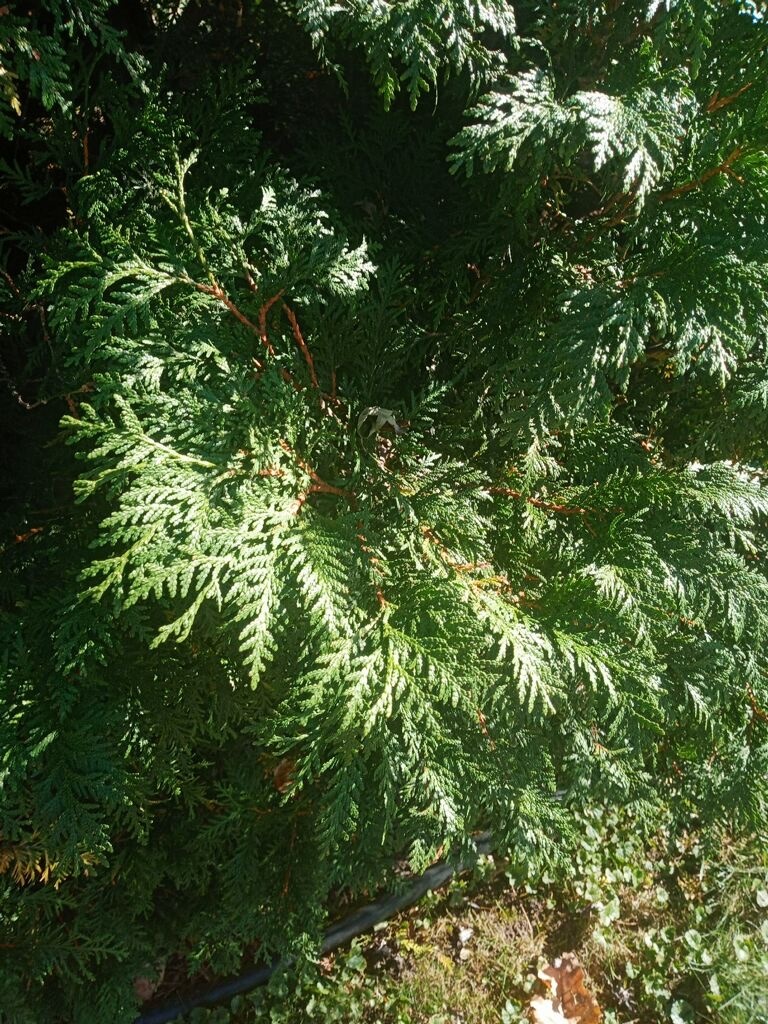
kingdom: Plantae
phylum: Tracheophyta
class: Pinopsida
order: Pinales
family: Cupressaceae
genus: Thuja
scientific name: Thuja occidentalis
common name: Northern white-cedar
